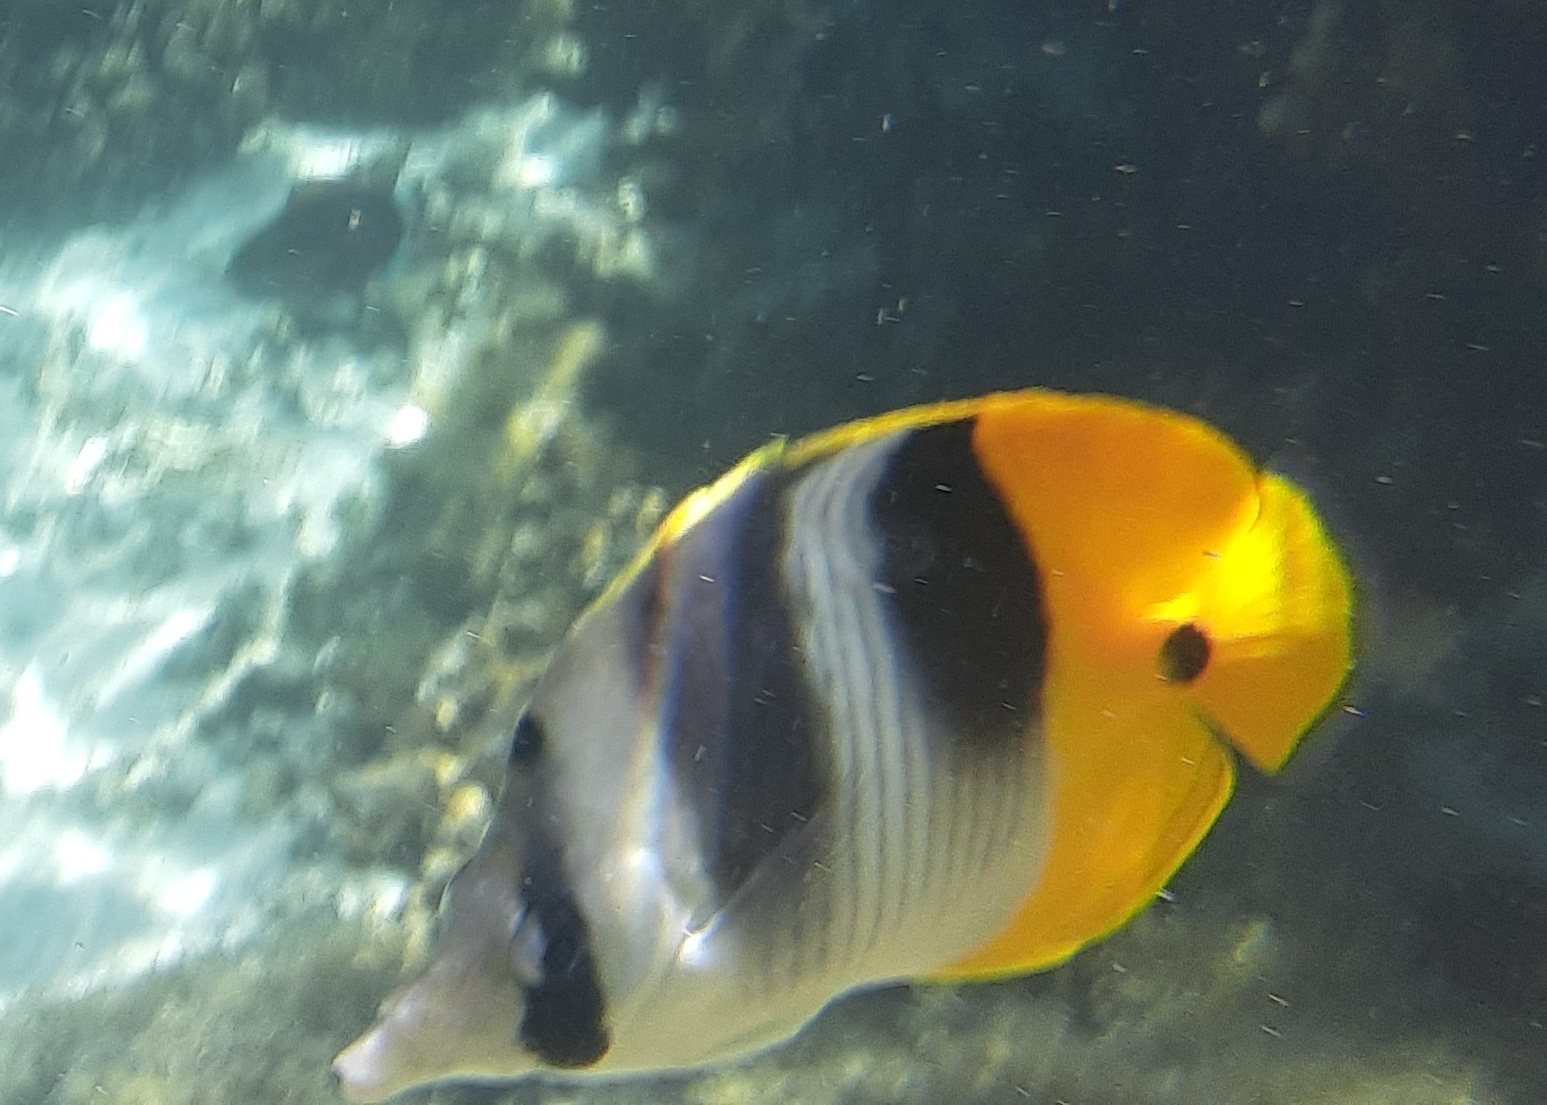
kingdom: Animalia
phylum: Chordata
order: Perciformes
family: Chaetodontidae
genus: Chaetodon
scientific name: Chaetodon ulietensis
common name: Pacific double-saddle butterflyfish
